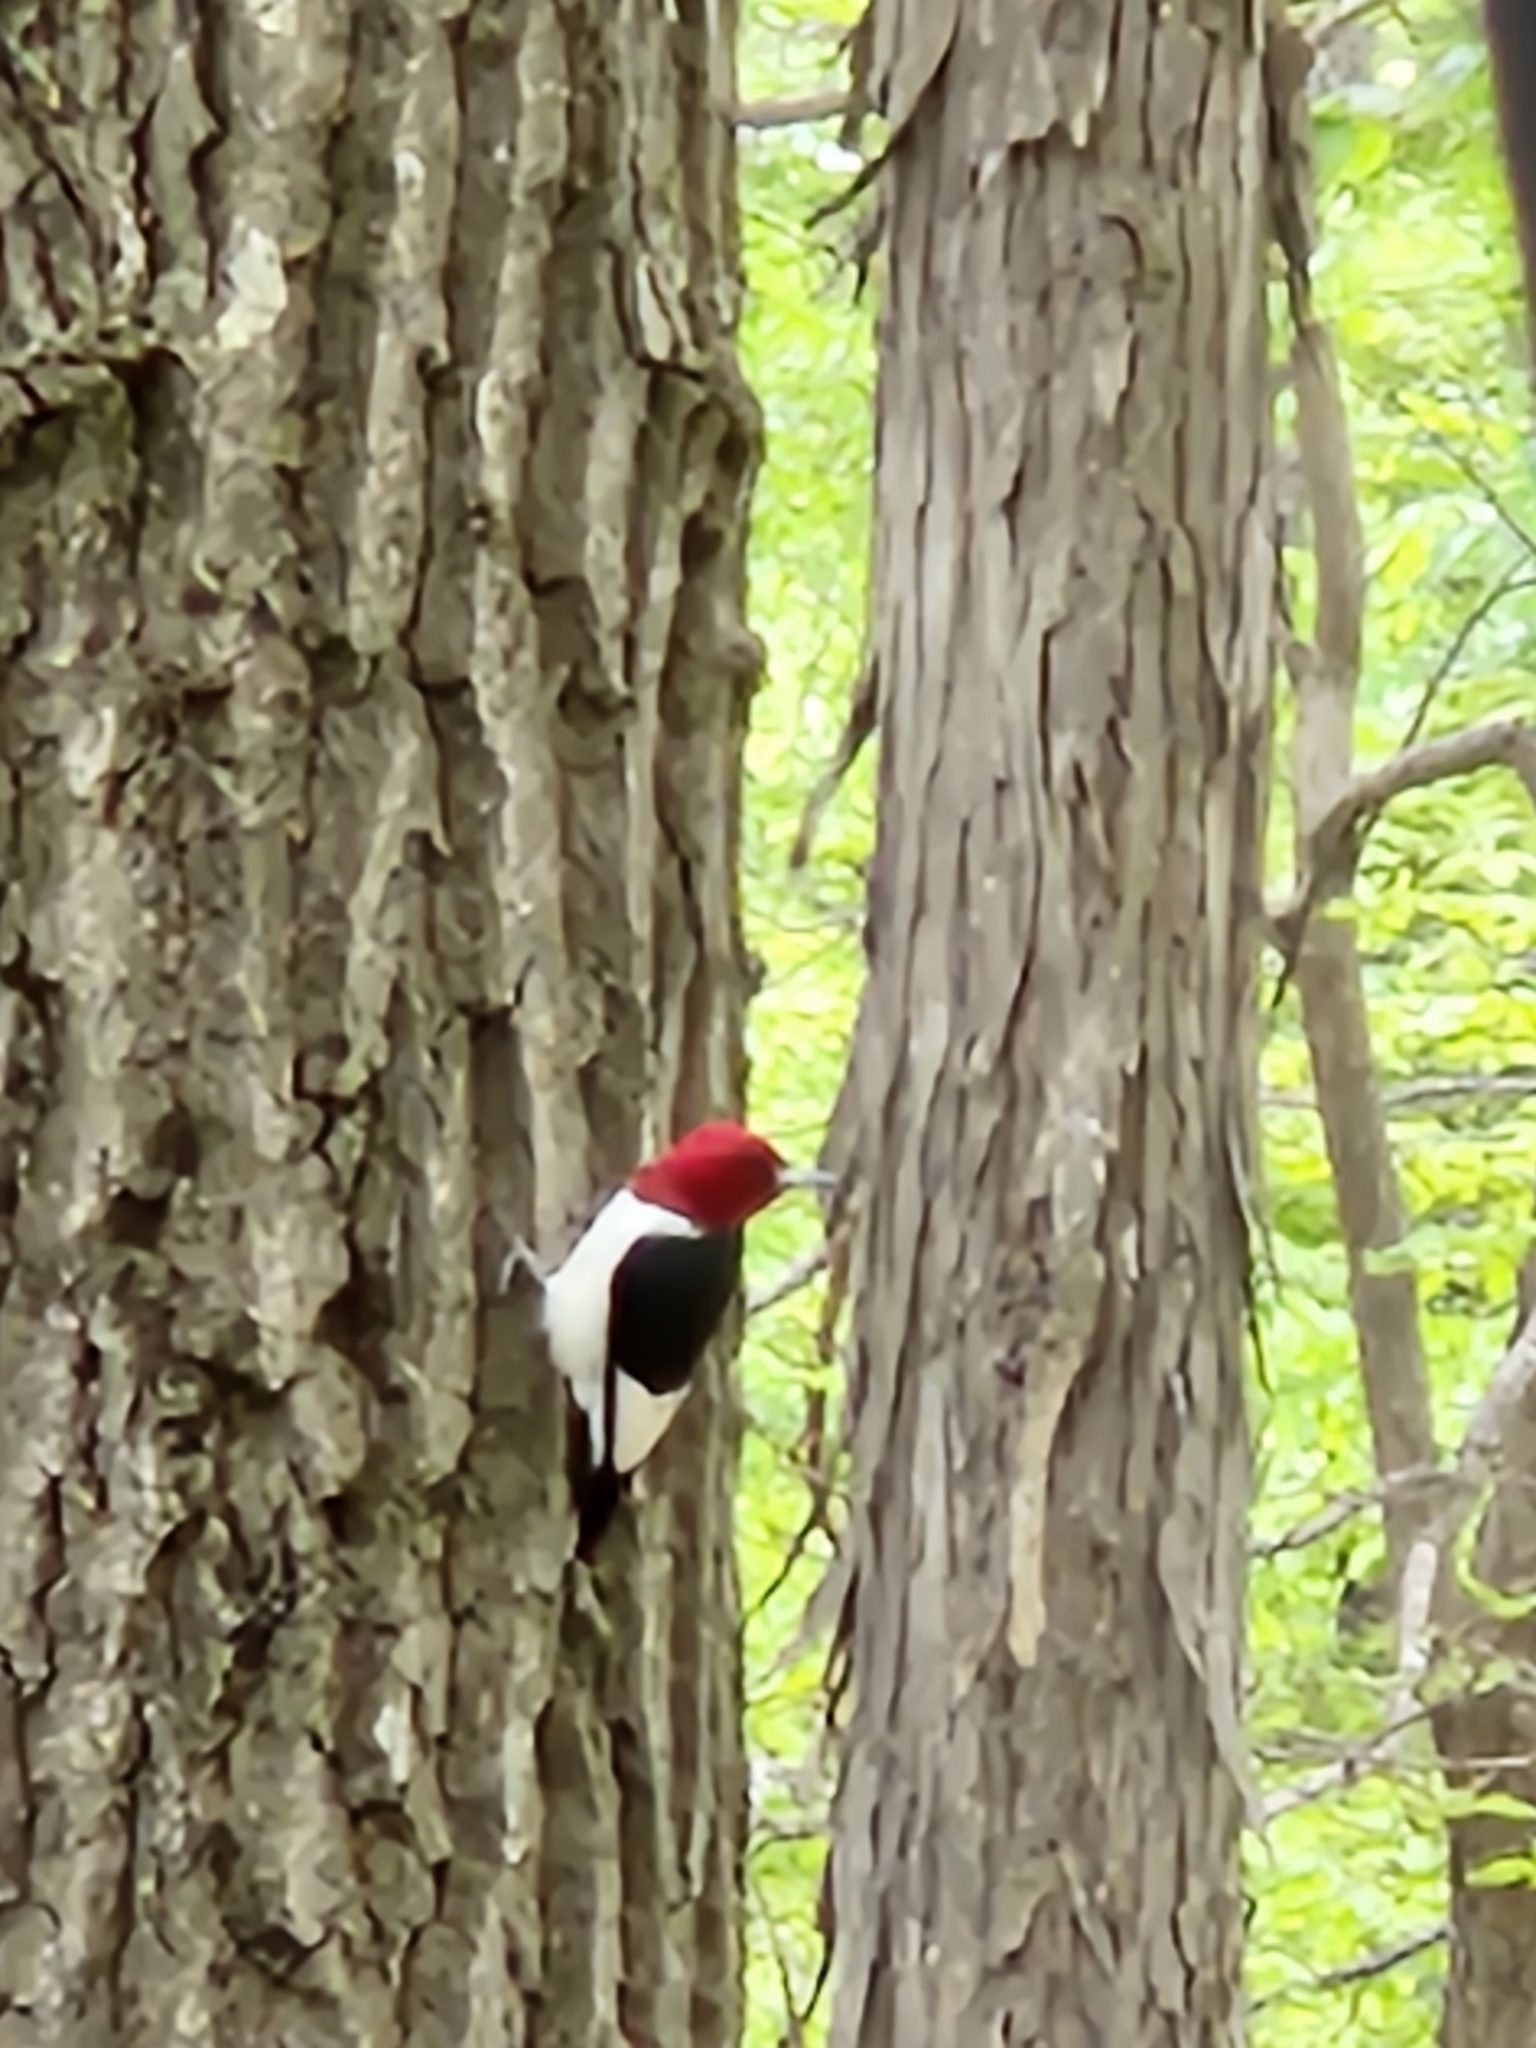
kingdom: Animalia
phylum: Chordata
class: Aves
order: Piciformes
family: Picidae
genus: Melanerpes
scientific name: Melanerpes erythrocephalus
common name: Red-headed woodpecker
